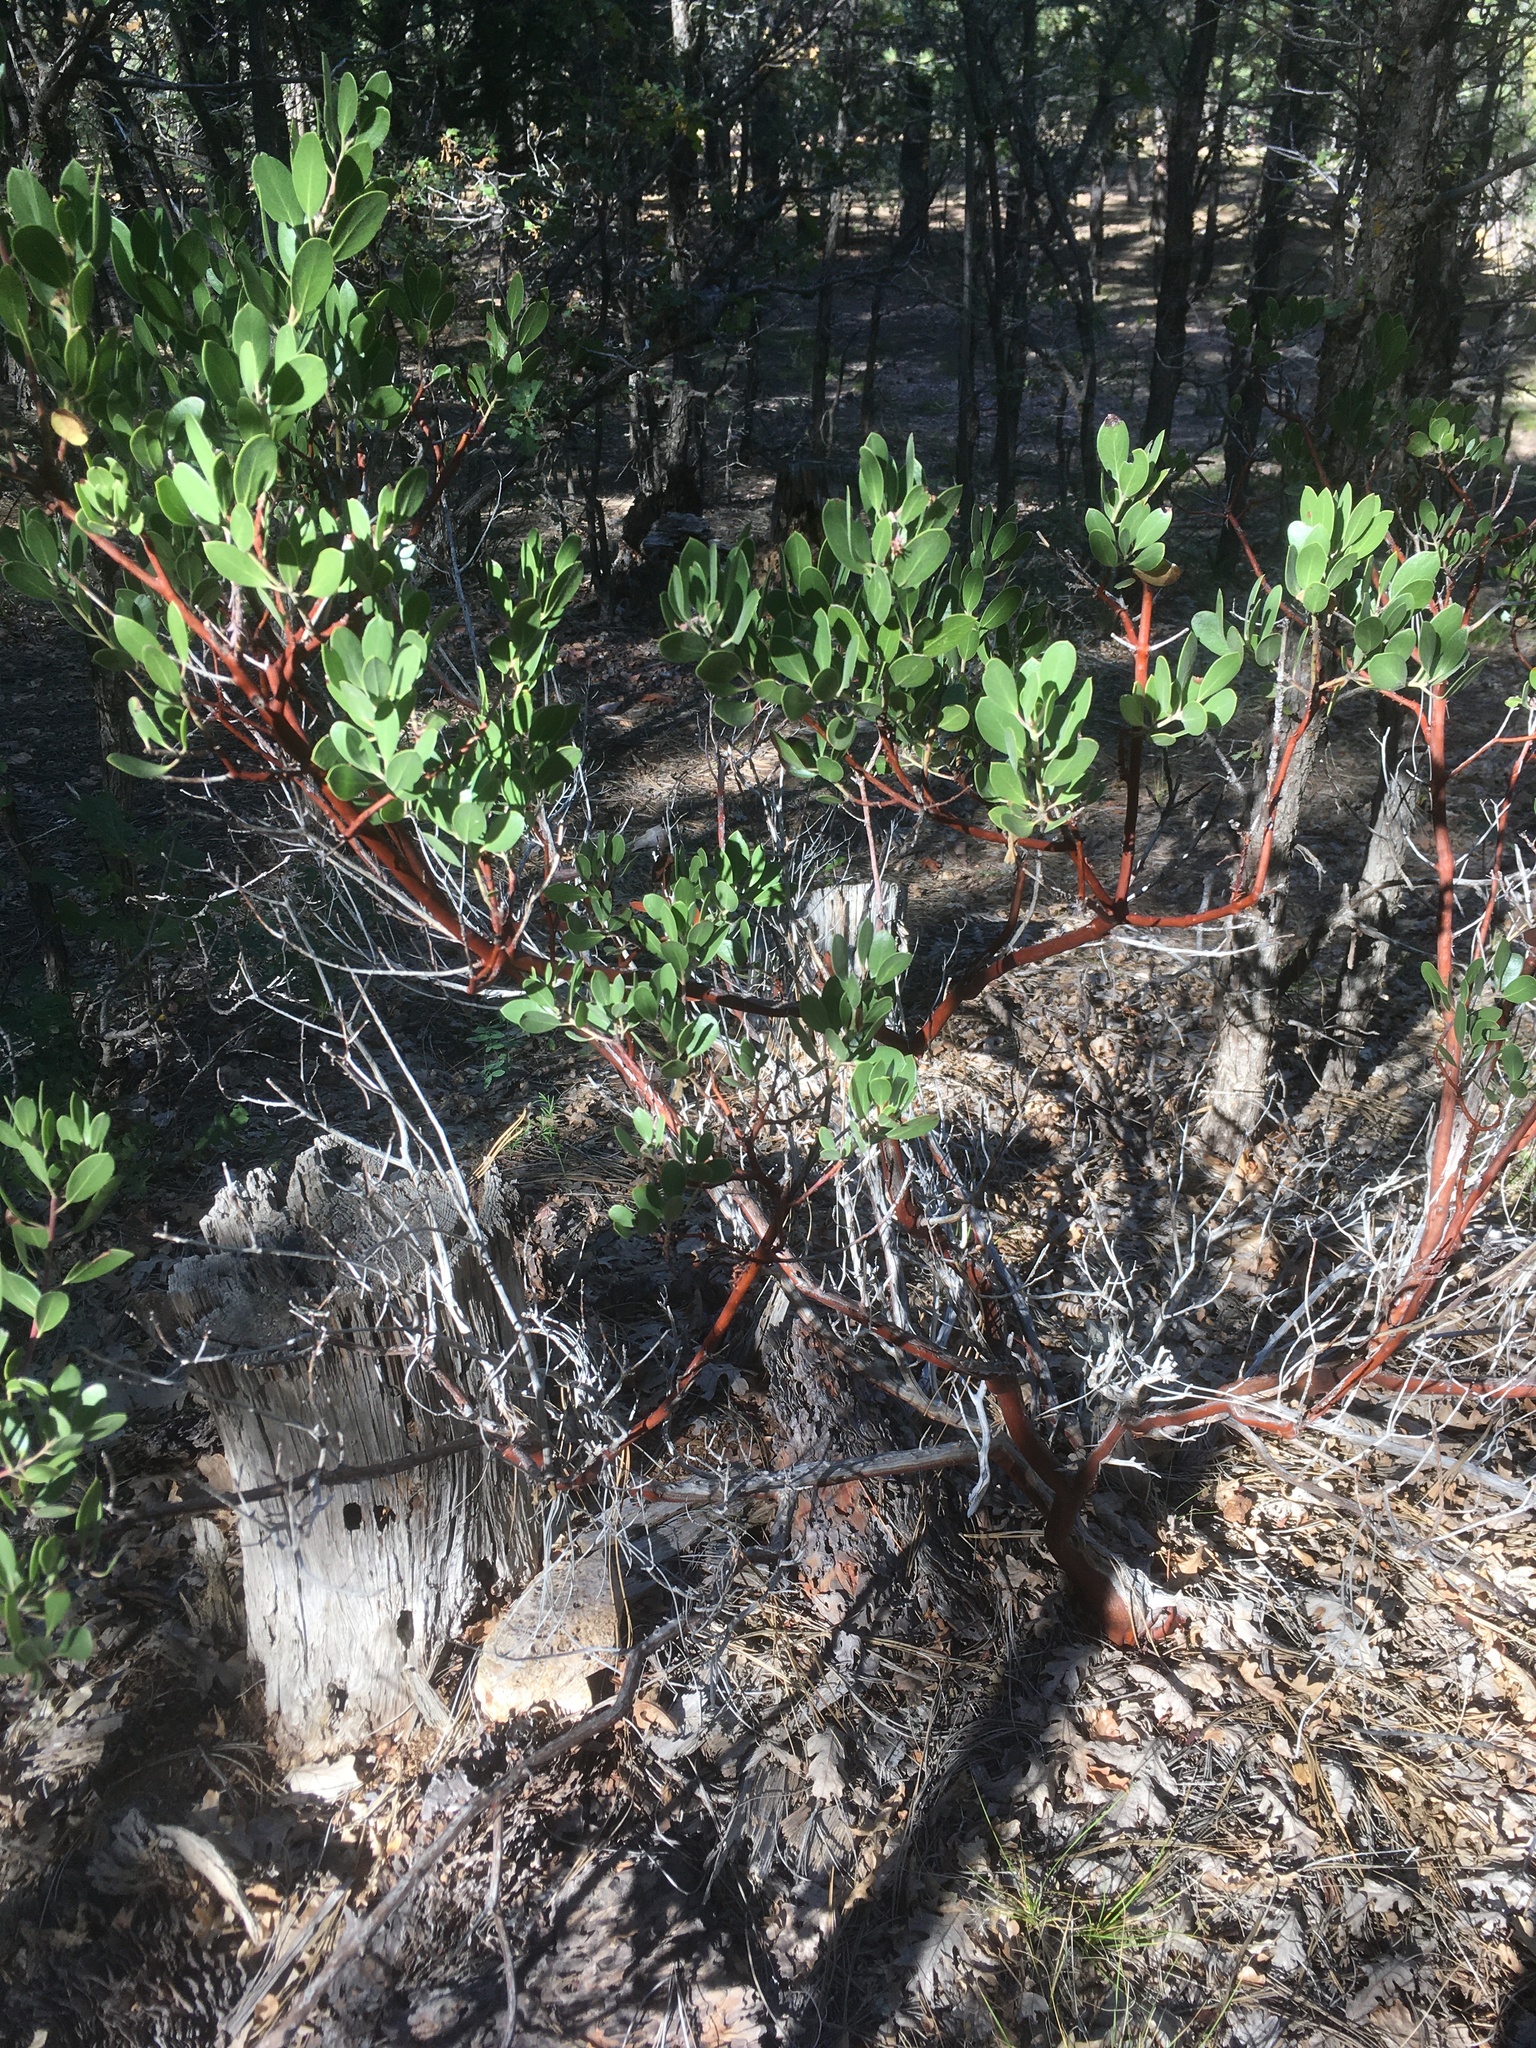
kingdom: Plantae
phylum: Tracheophyta
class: Magnoliopsida
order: Ericales
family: Ericaceae
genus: Arctostaphylos
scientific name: Arctostaphylos pungens
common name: Mexican manzanita
